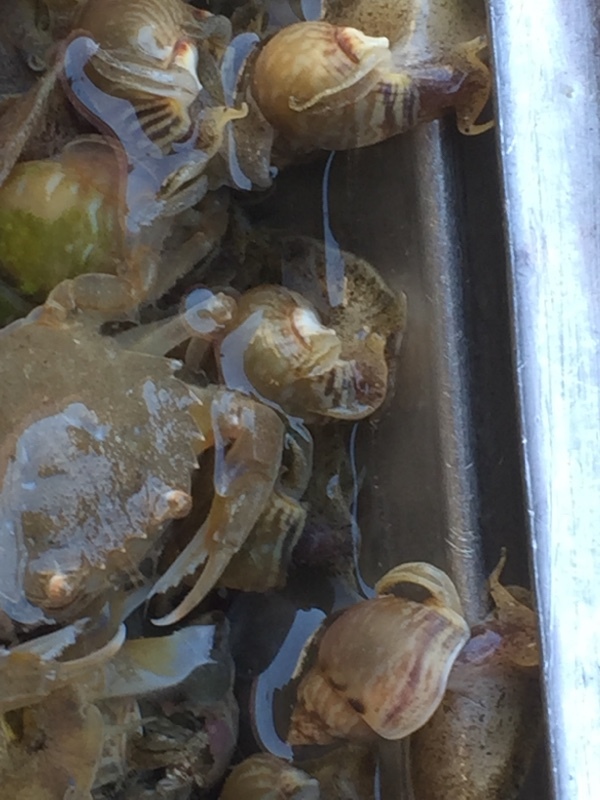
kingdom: Animalia
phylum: Mollusca
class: Gastropoda
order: Neogastropoda
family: Nassariidae
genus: Tritia
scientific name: Tritia mutabilis
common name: Mutable nassa
